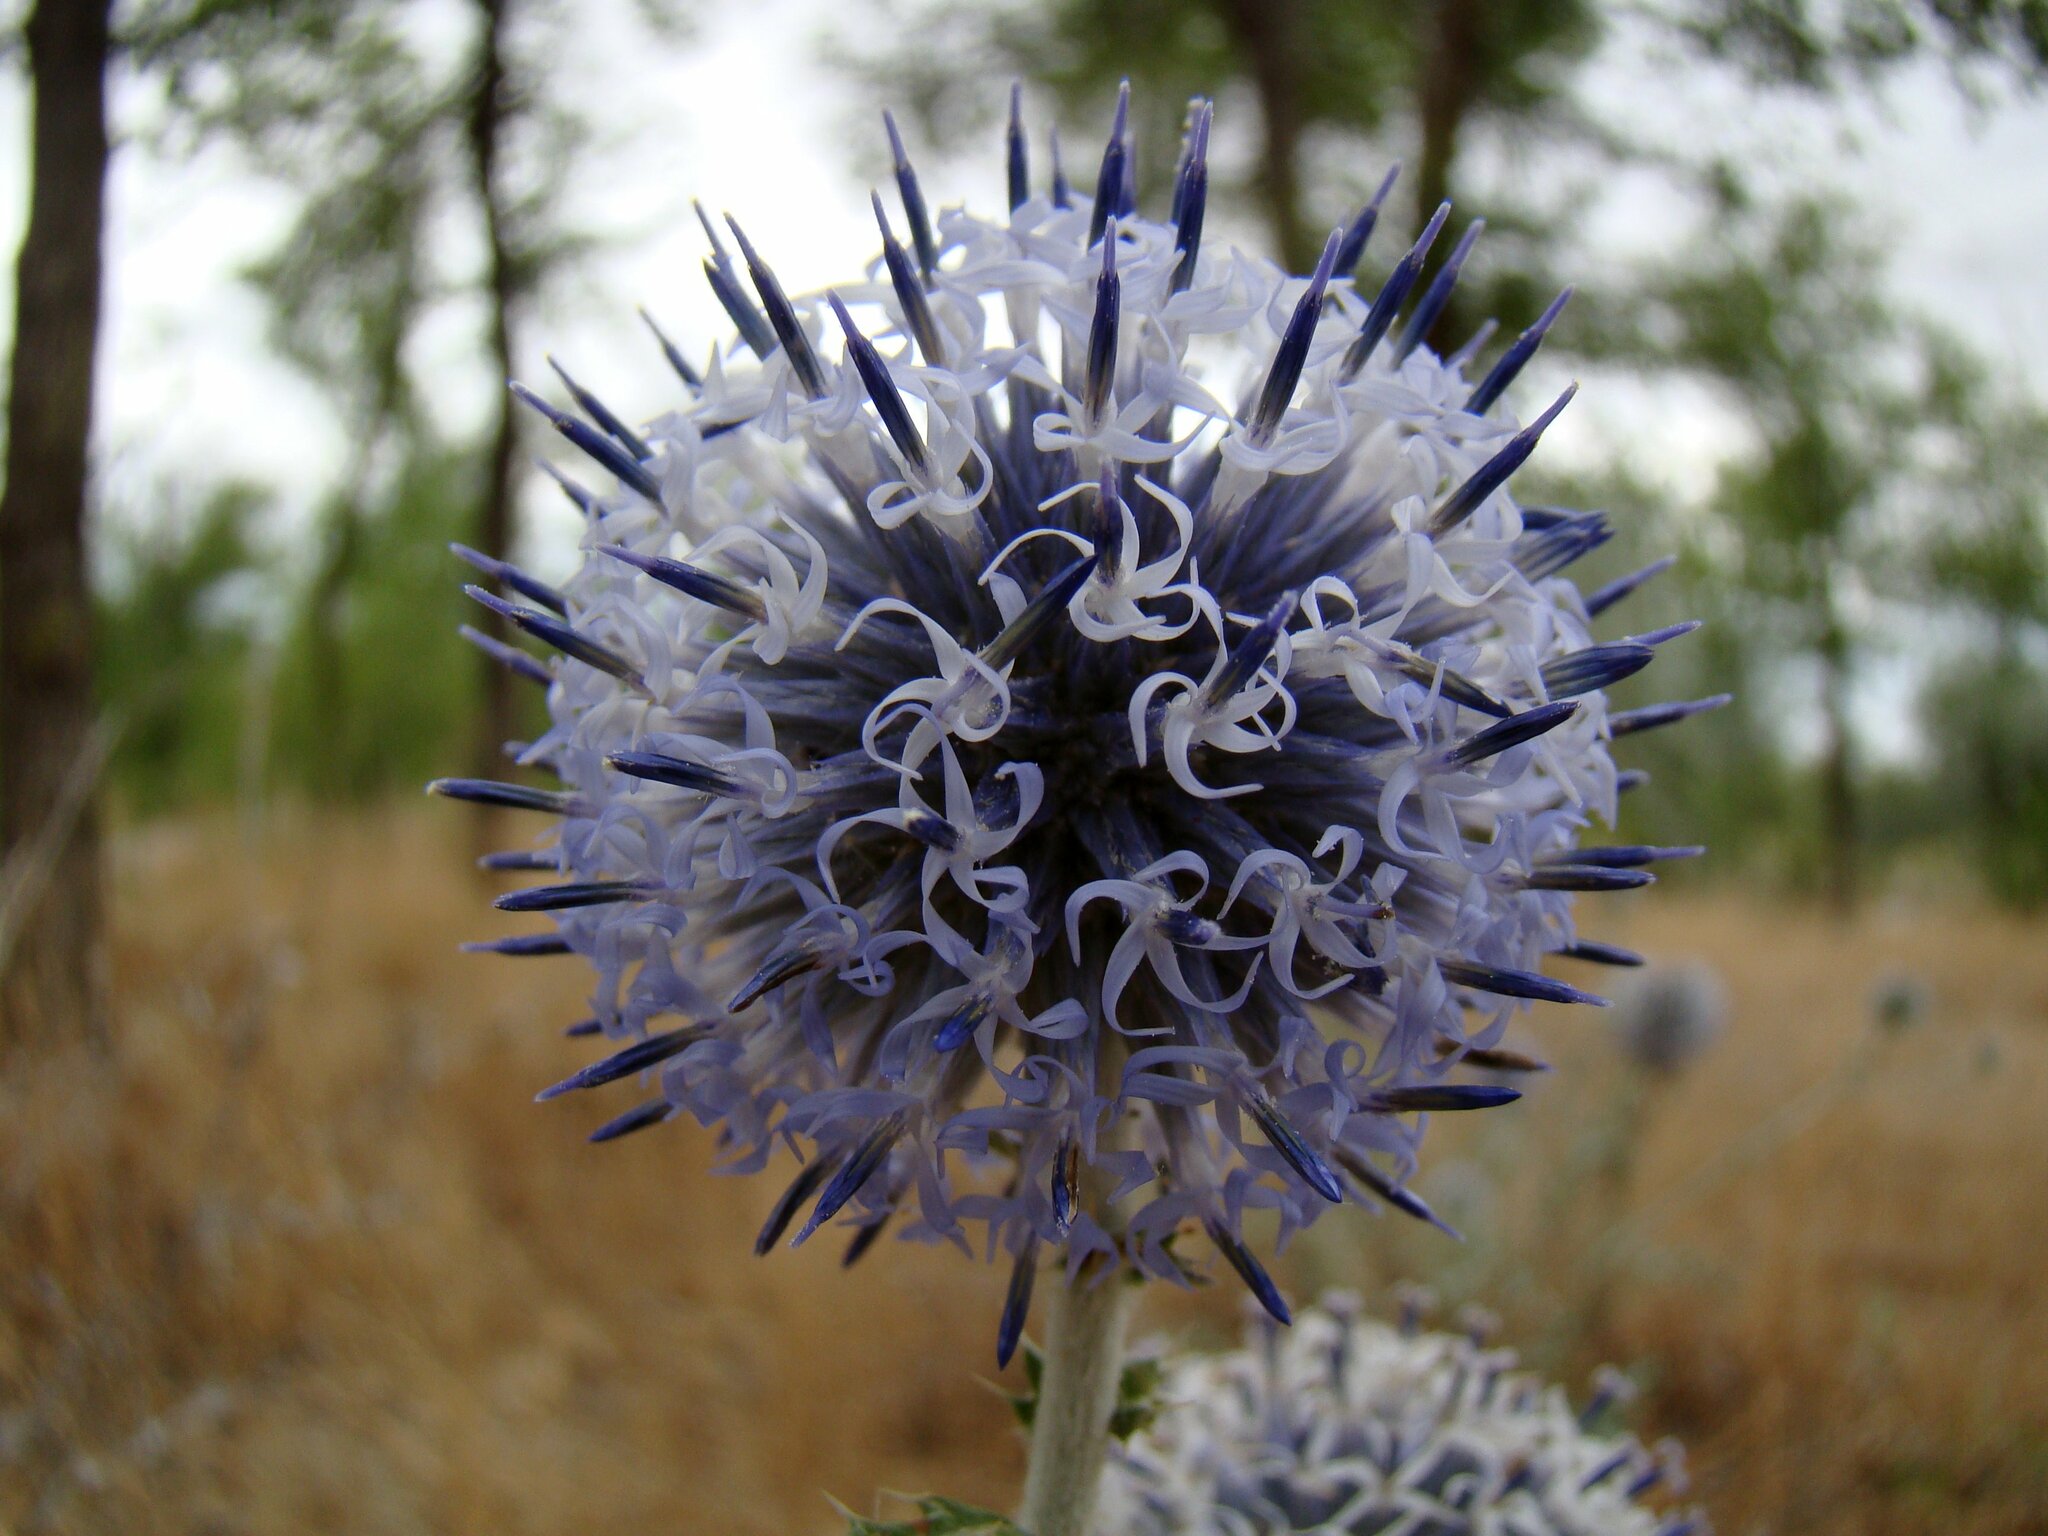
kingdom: Plantae
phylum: Tracheophyta
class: Magnoliopsida
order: Asterales
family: Asteraceae
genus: Echinops
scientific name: Echinops albicaulis
